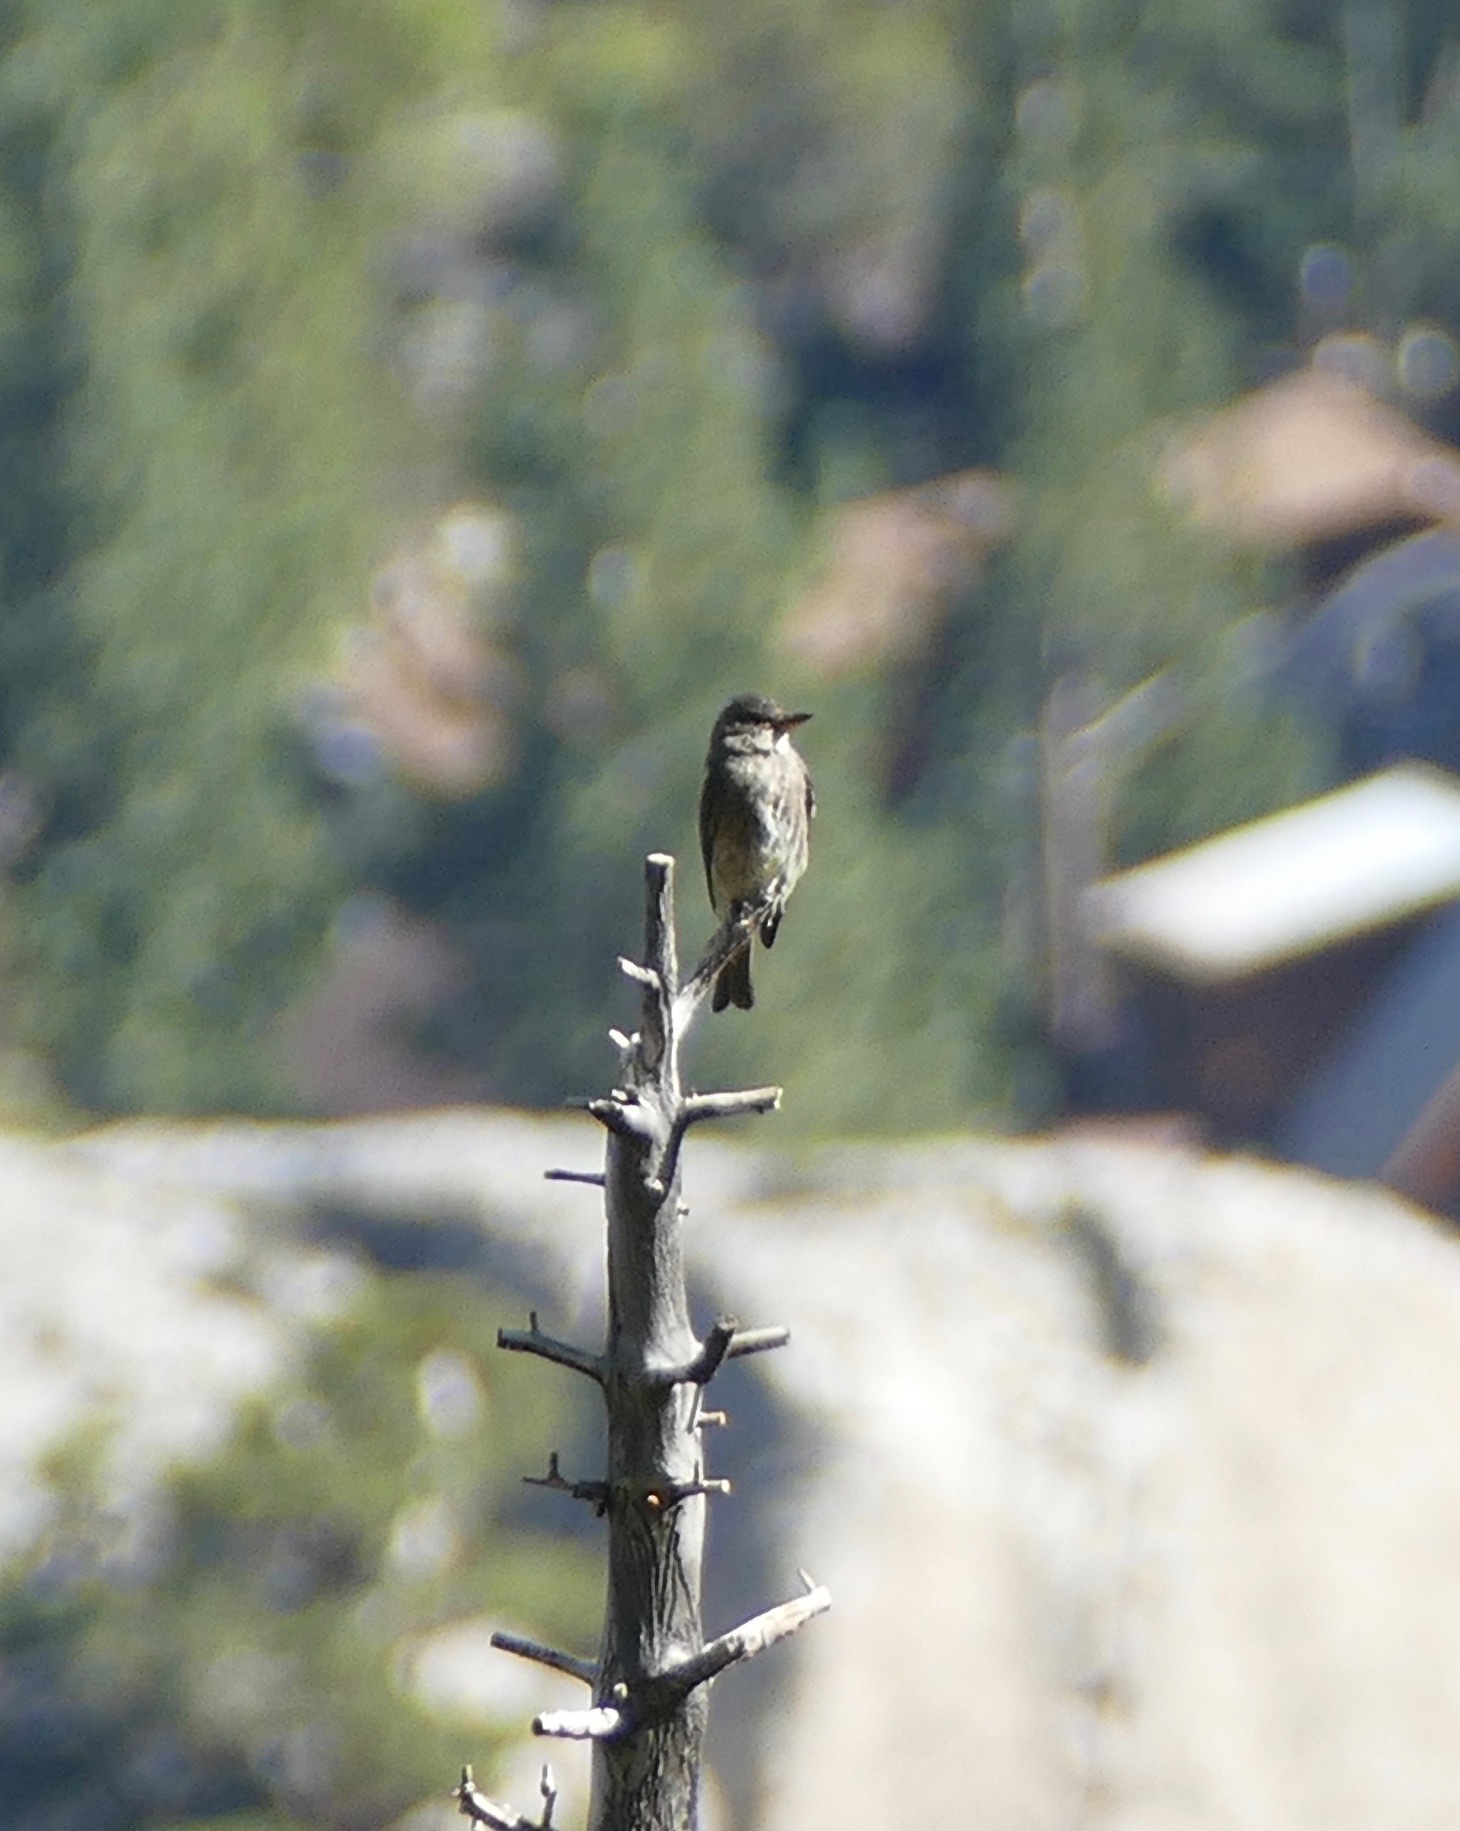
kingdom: Animalia
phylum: Chordata
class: Aves
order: Passeriformes
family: Tyrannidae
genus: Contopus
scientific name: Contopus cooperi
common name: Olive-sided flycatcher
